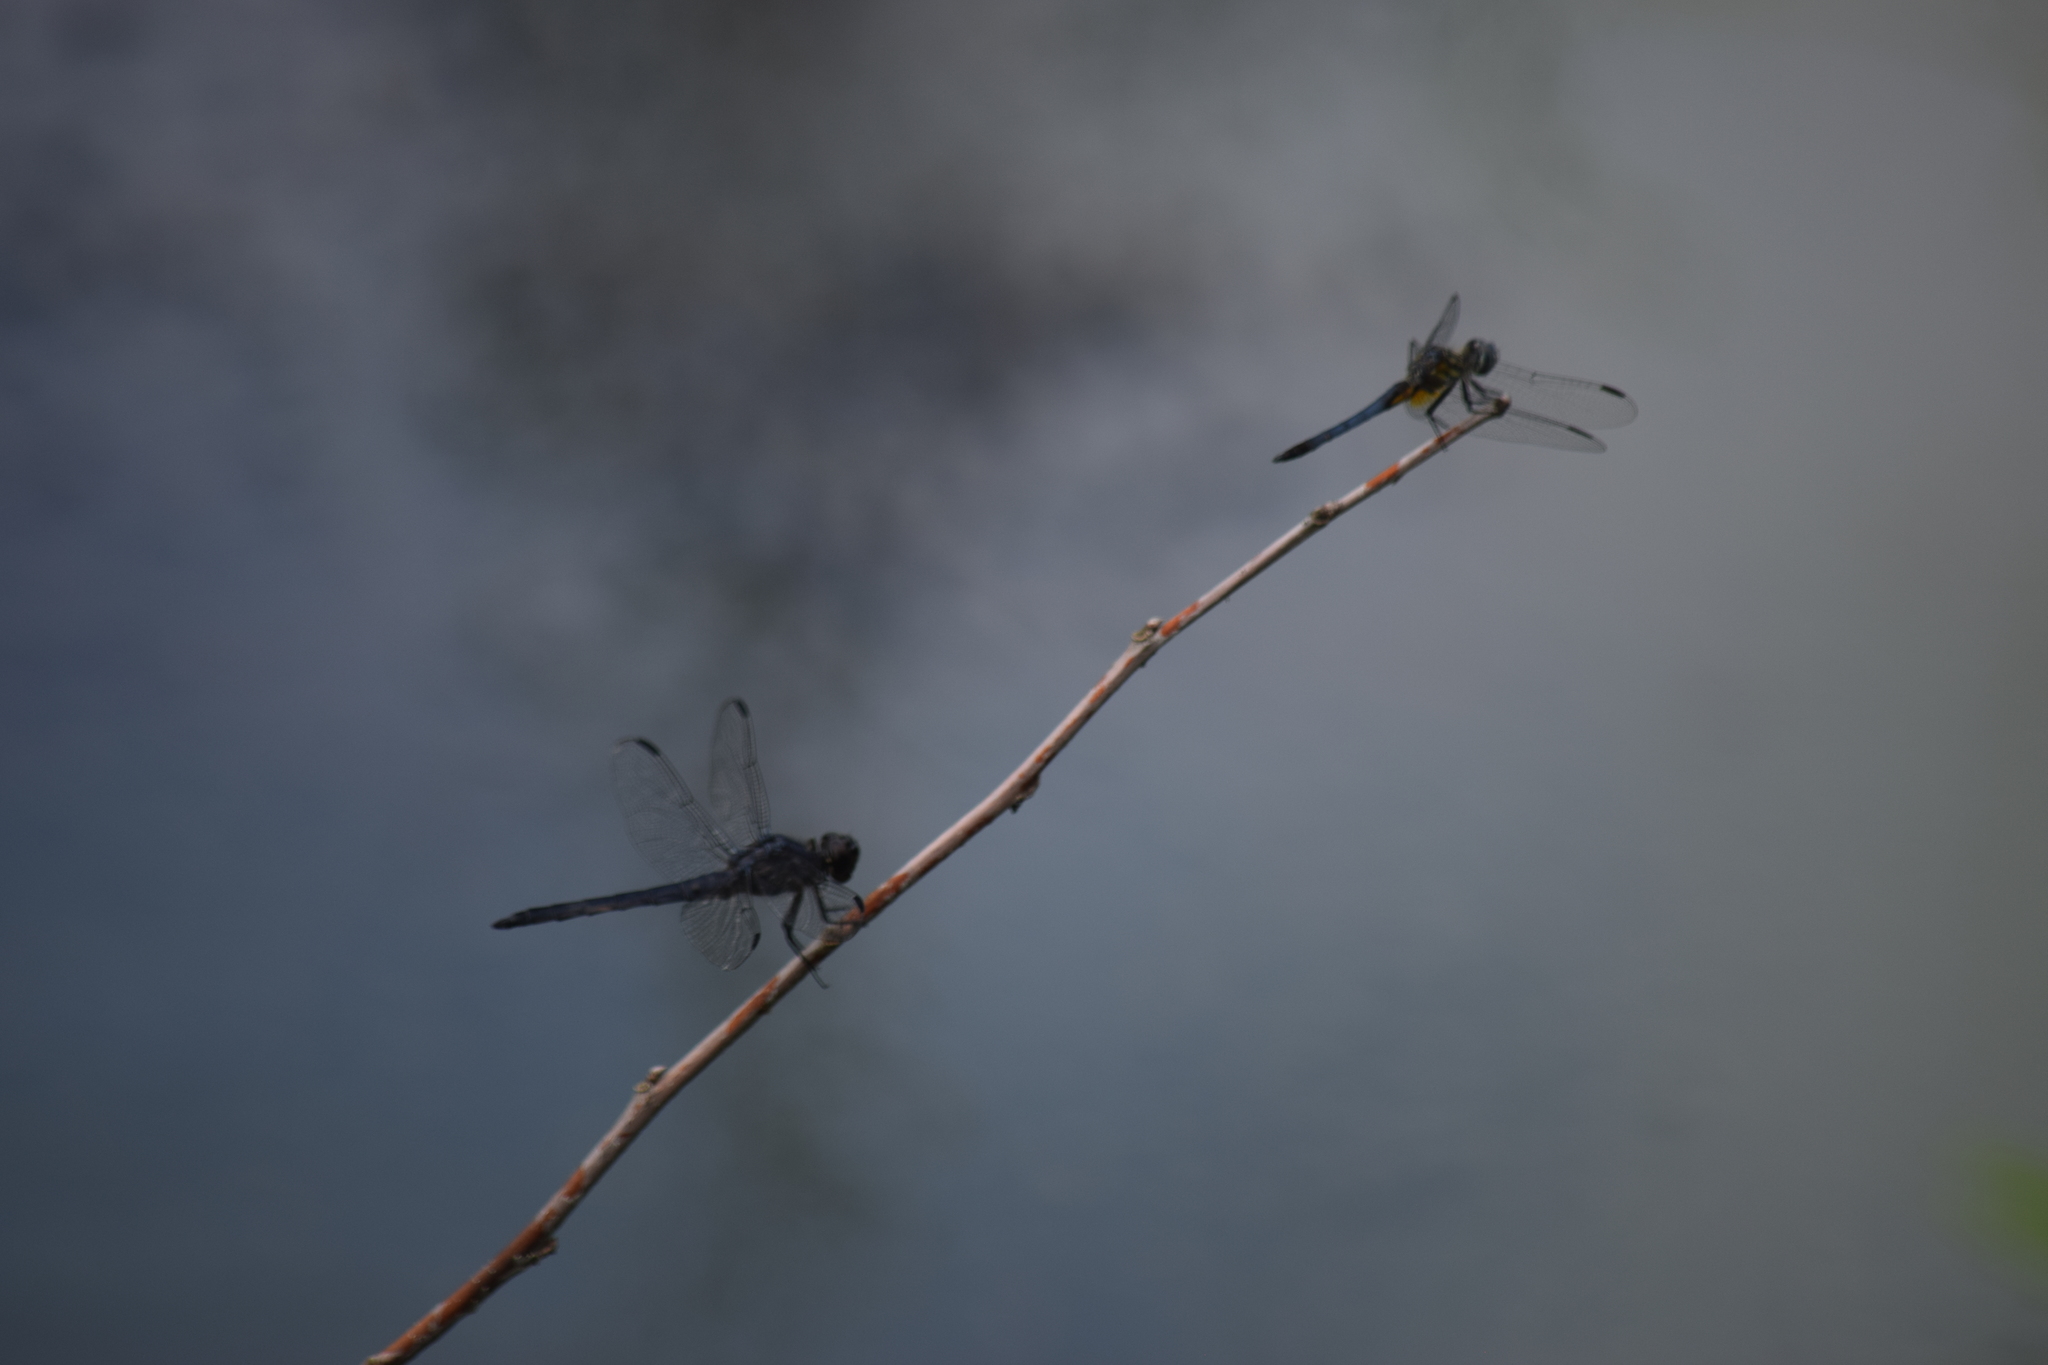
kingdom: Animalia
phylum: Arthropoda
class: Insecta
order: Odonata
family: Libellulidae
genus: Libellula
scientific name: Libellula incesta
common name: Slaty skimmer
